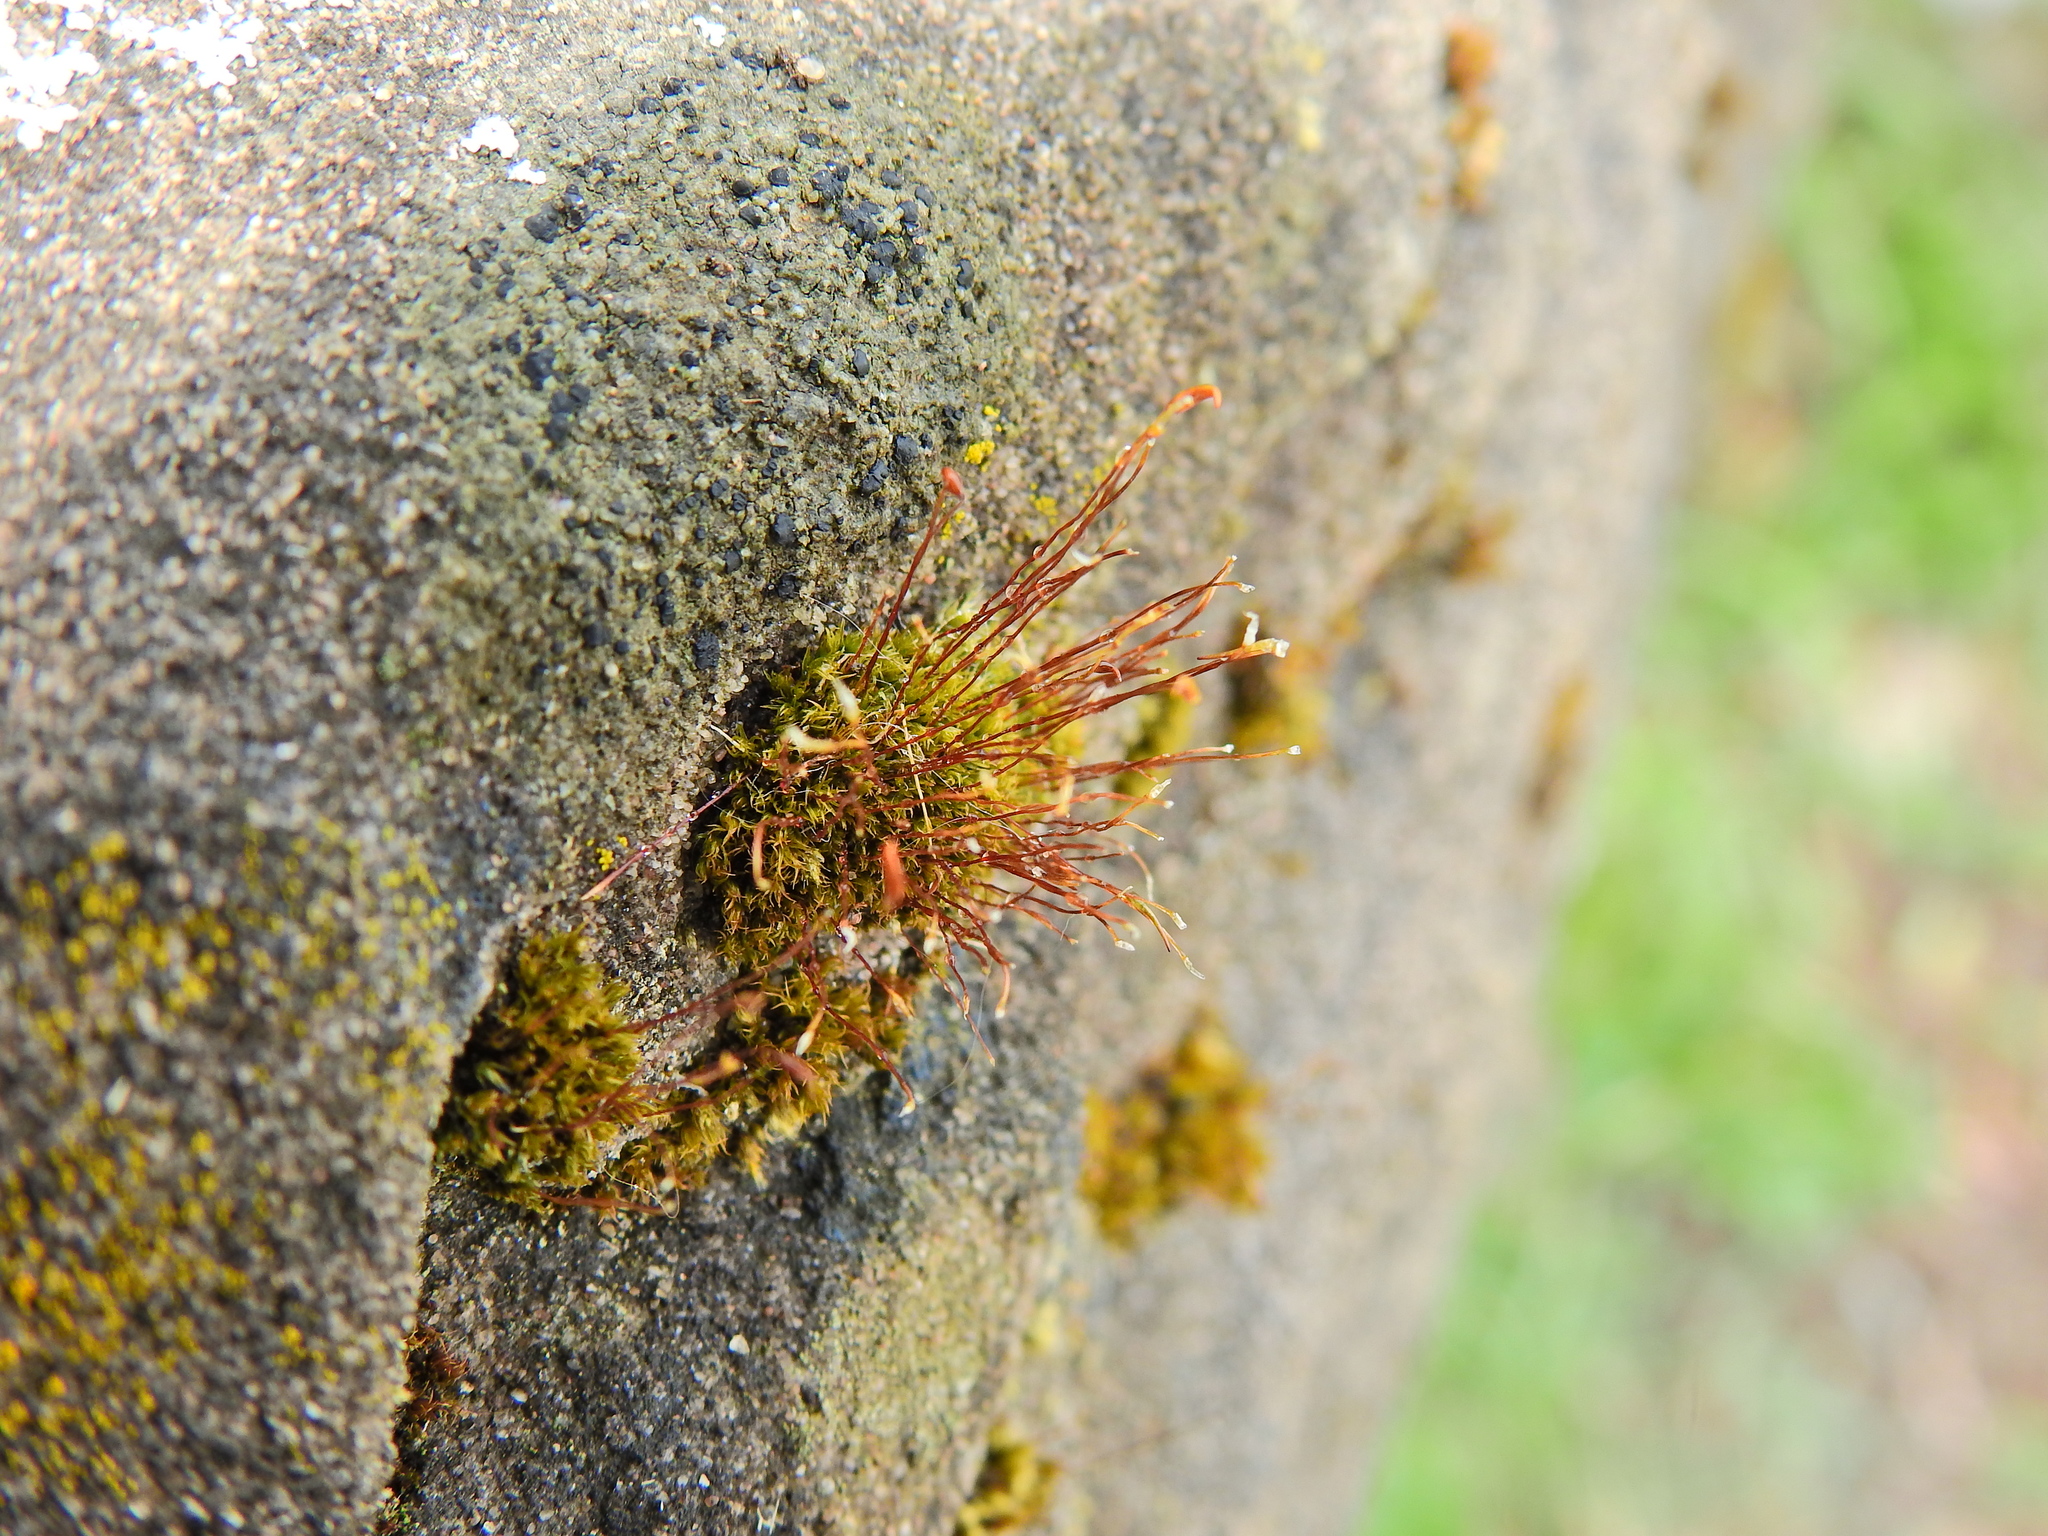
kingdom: Plantae
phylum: Bryophyta
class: Bryopsida
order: Pottiales
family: Pottiaceae
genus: Tortula
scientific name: Tortula muralis
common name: Wall screw-moss
